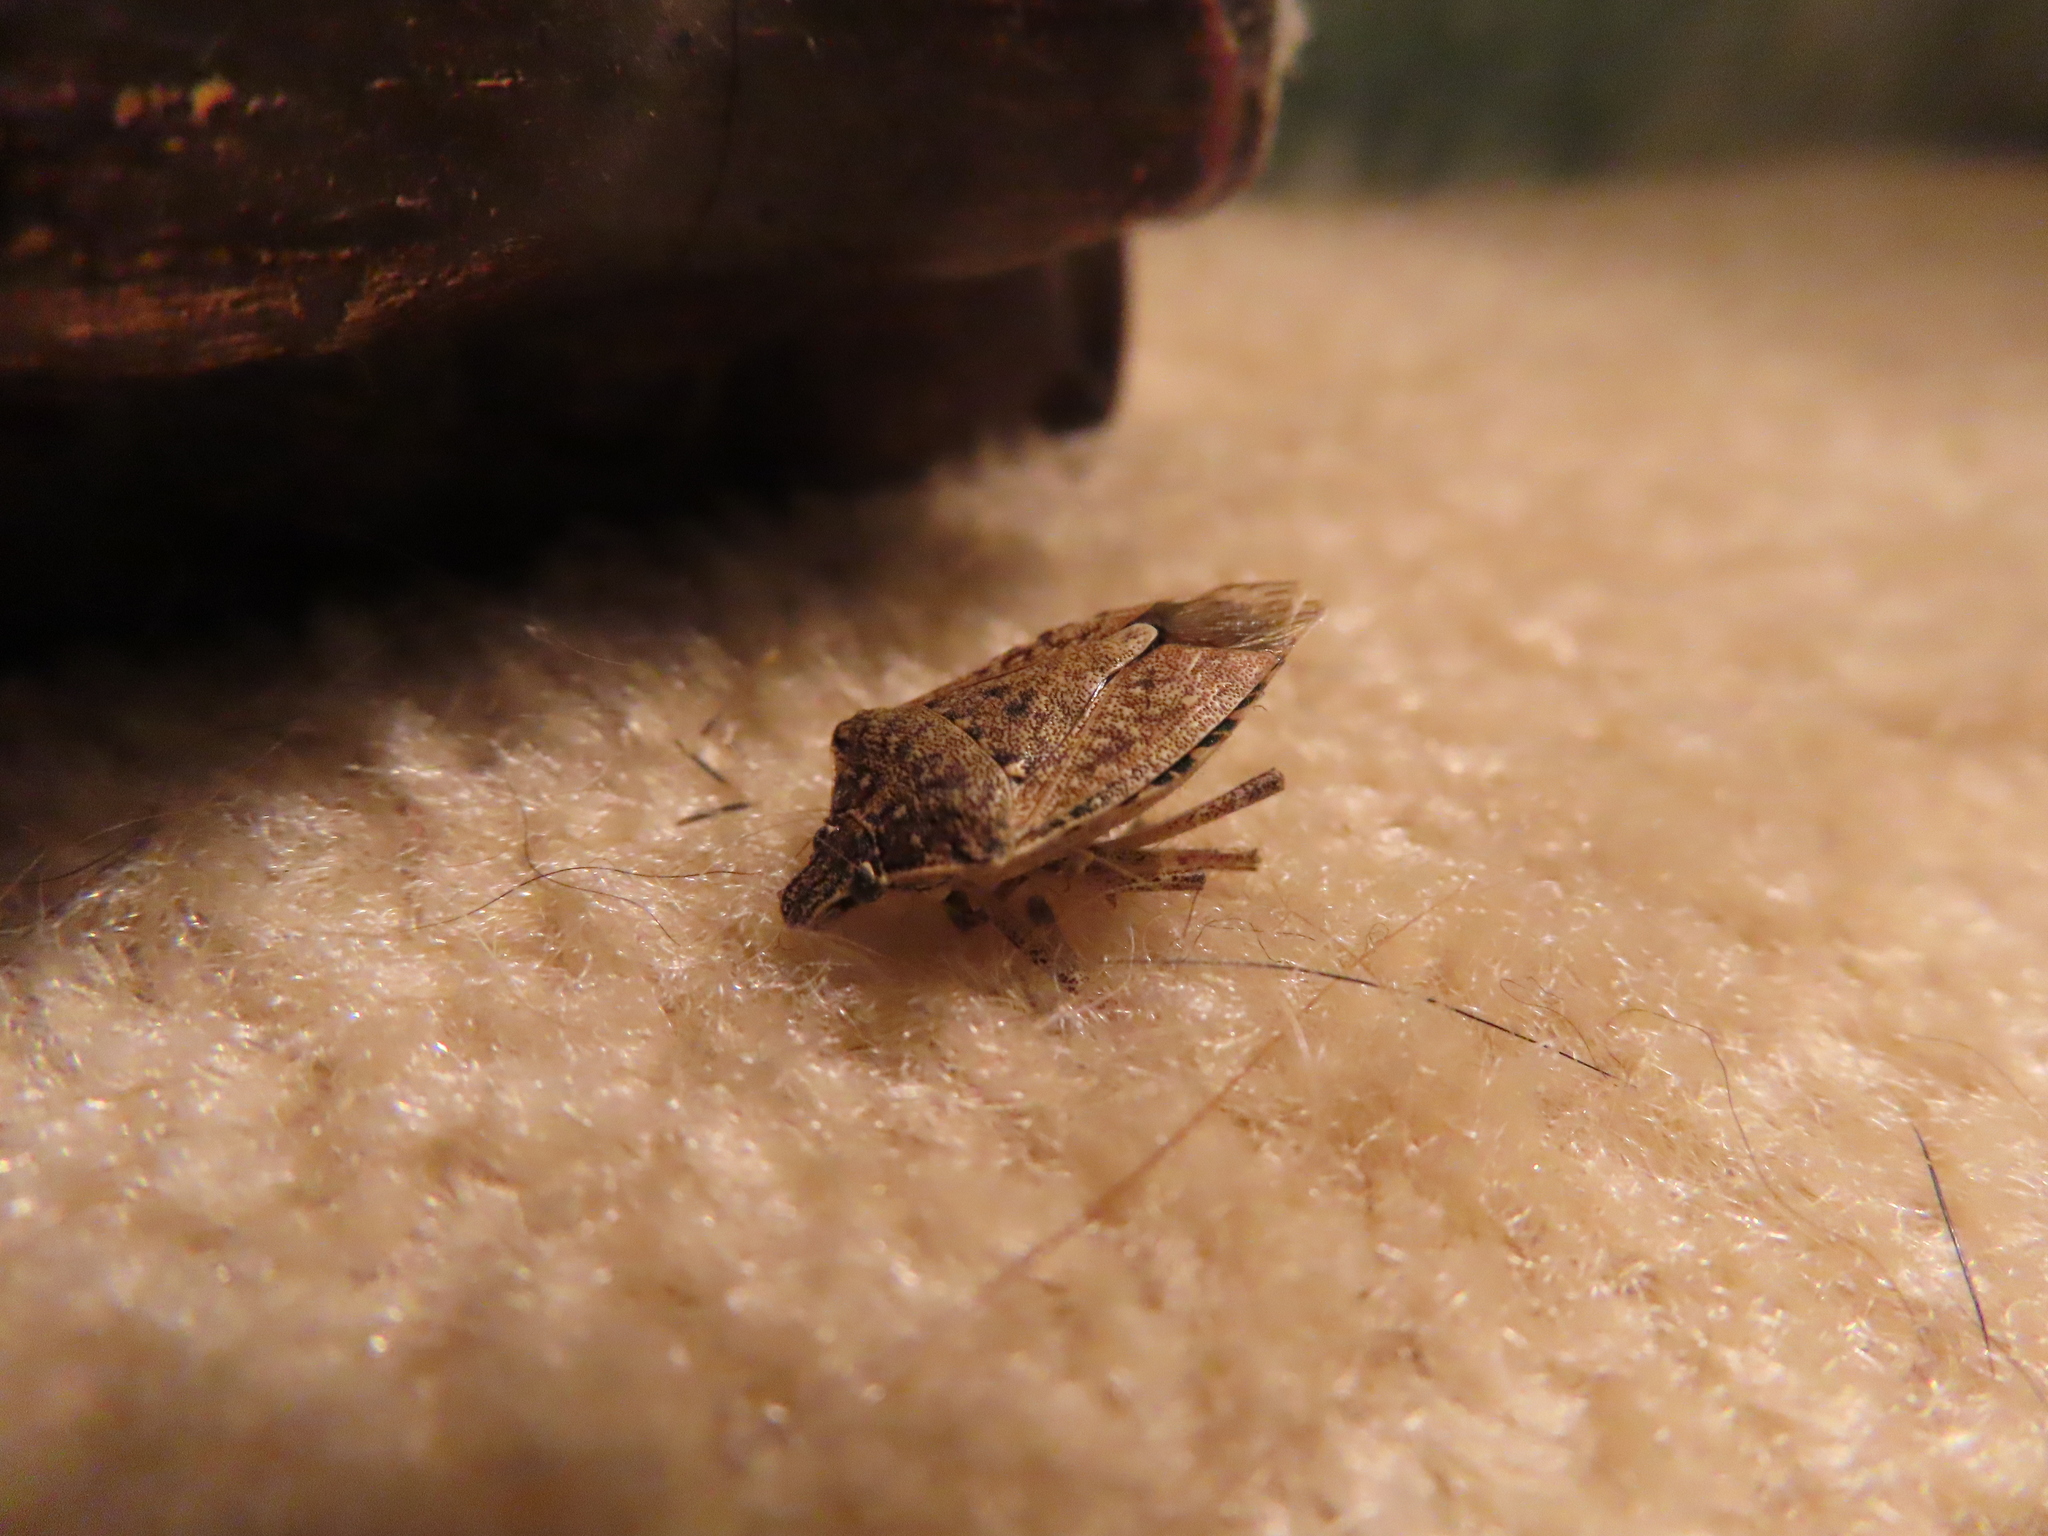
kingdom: Animalia
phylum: Arthropoda
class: Insecta
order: Hemiptera
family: Pentatomidae
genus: Halyomorpha
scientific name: Halyomorpha halys
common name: Brown marmorated stink bug
